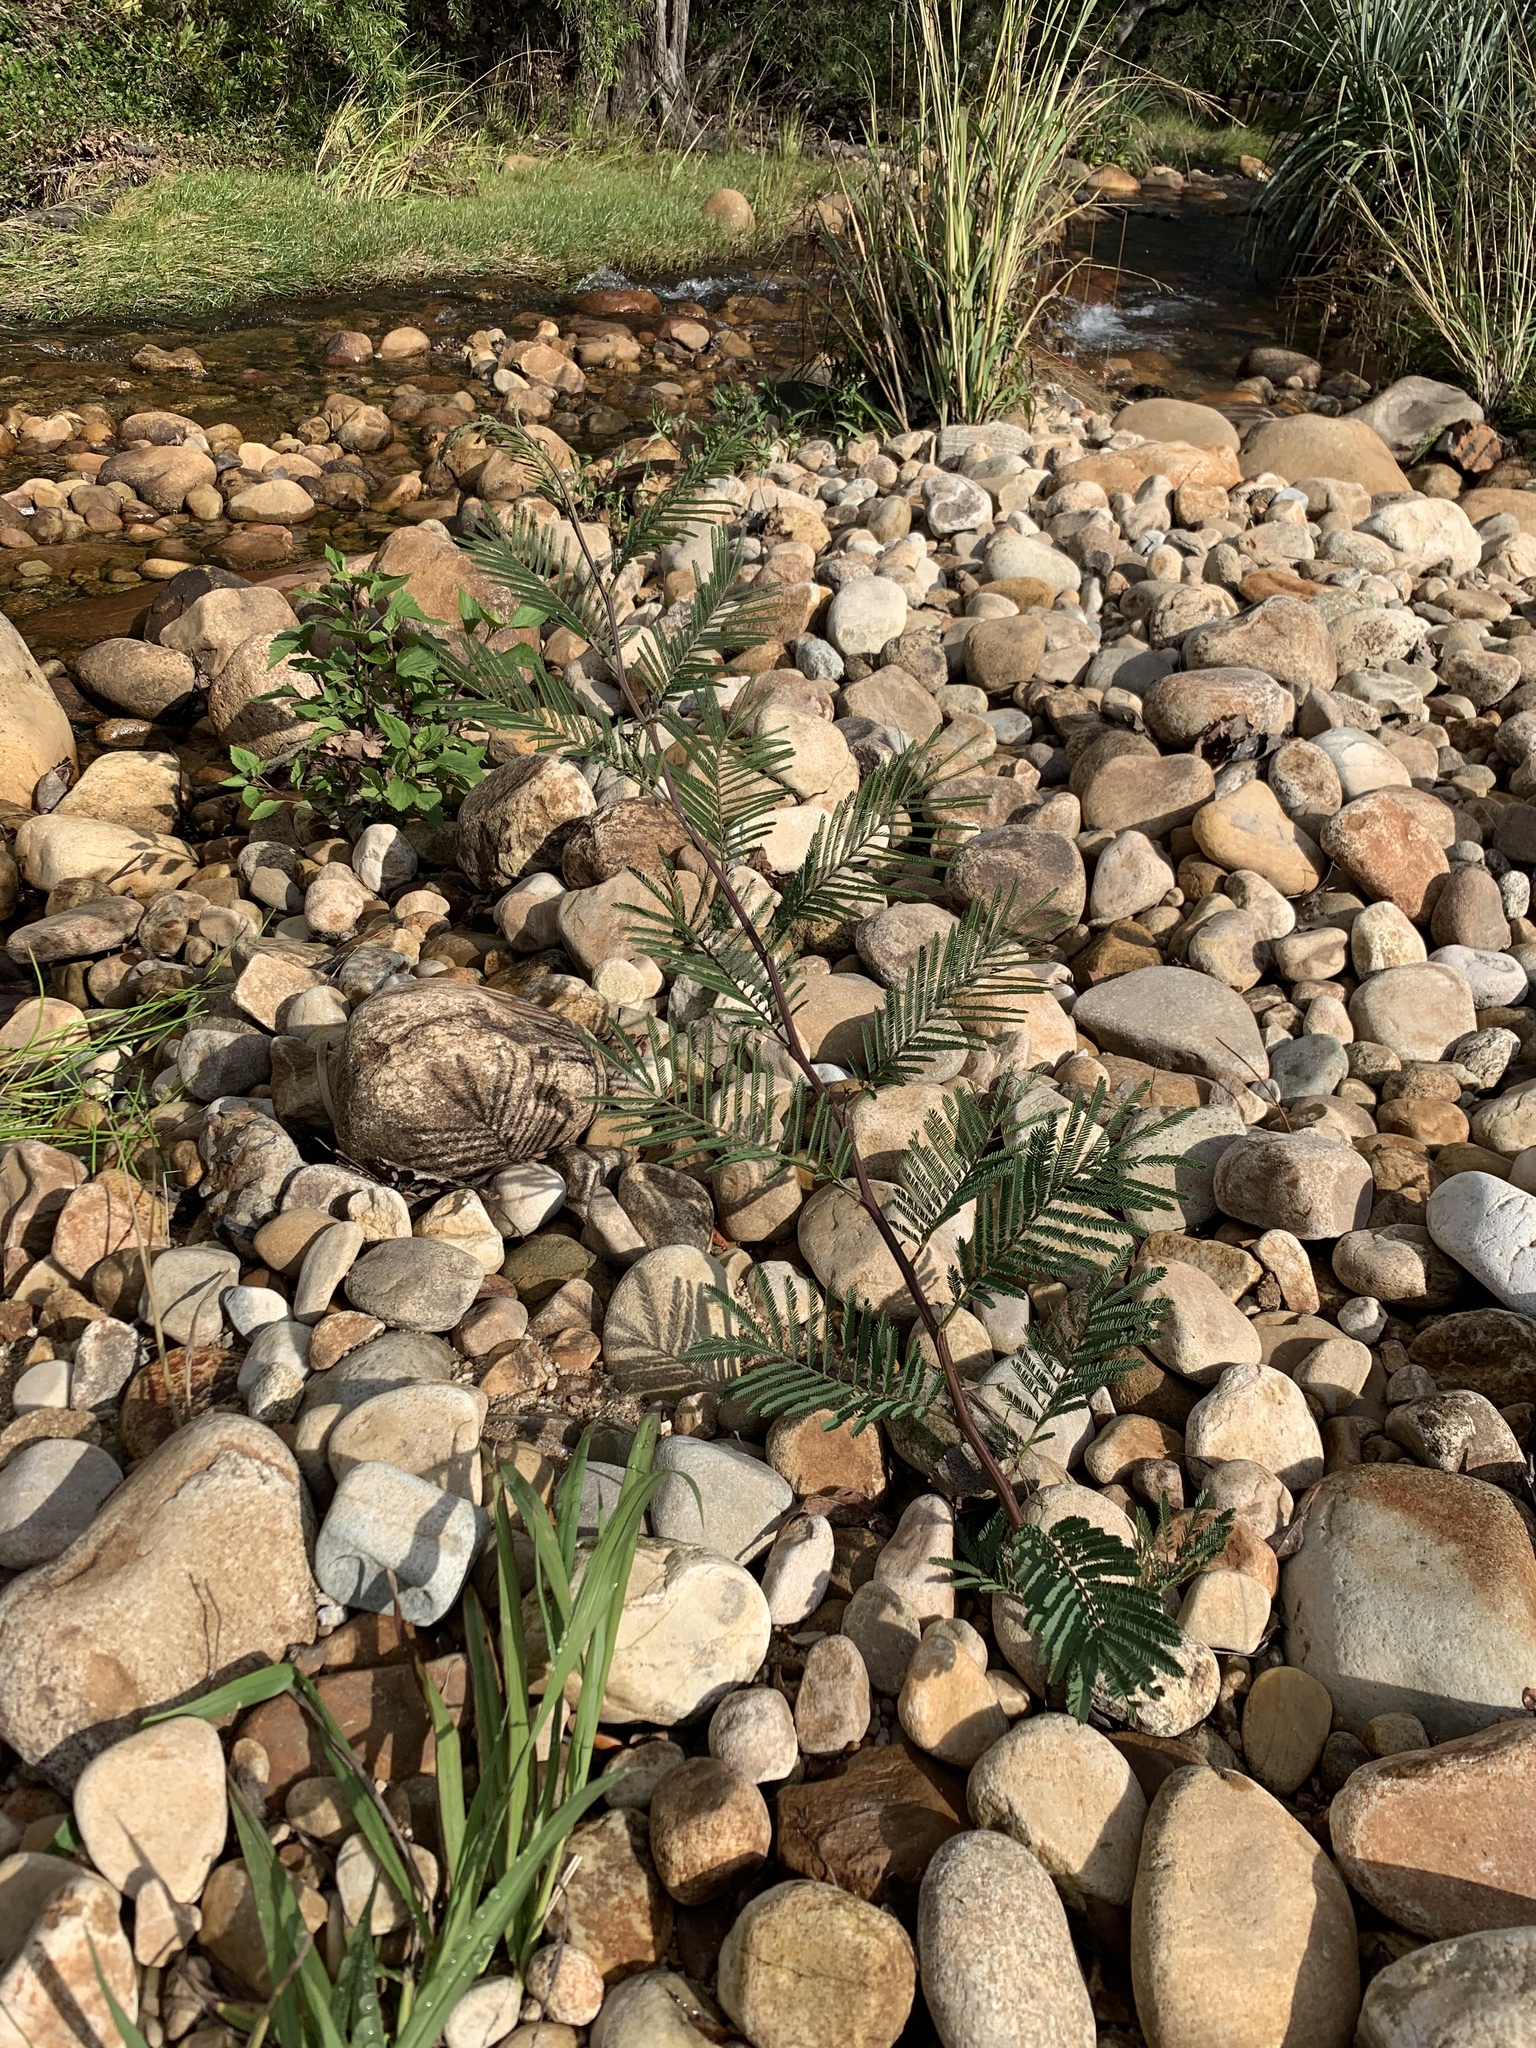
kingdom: Plantae
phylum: Tracheophyta
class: Magnoliopsida
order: Fabales
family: Fabaceae
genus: Acacia
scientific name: Acacia mearnsii
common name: Black wattle
